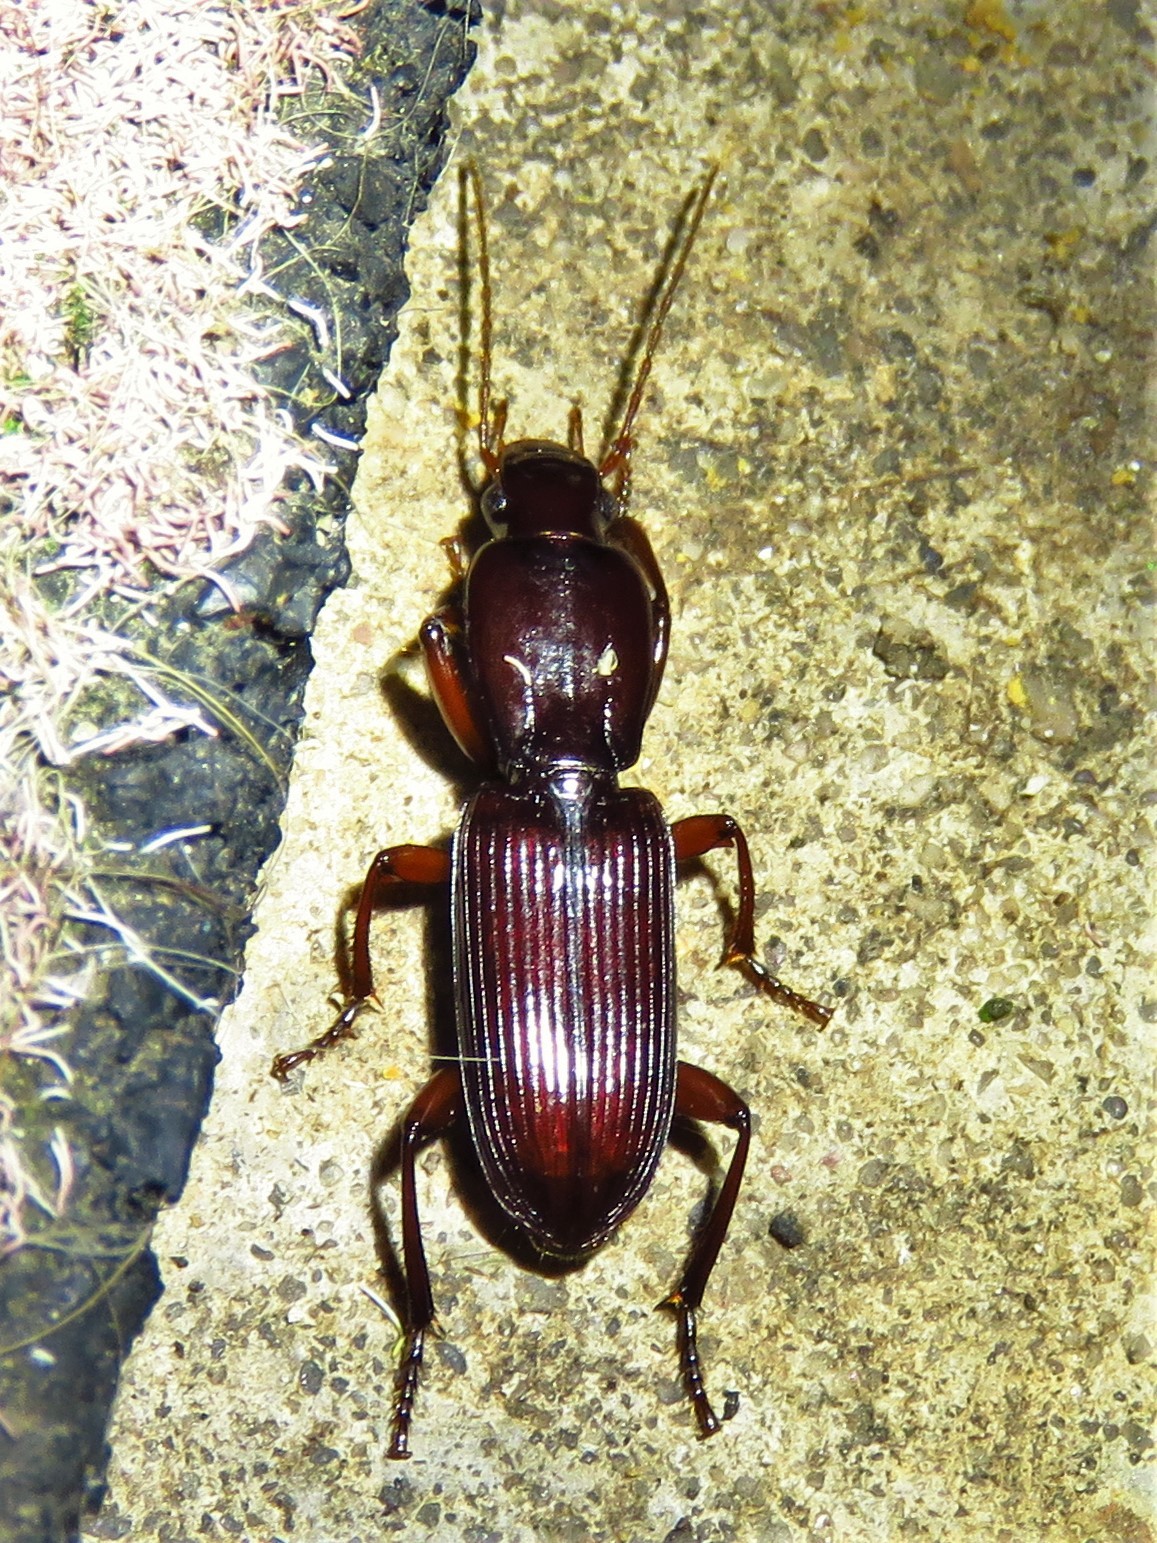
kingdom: Animalia
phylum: Arthropoda
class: Insecta
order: Coleoptera
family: Carabidae
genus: Stenomorphus
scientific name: Stenomorphus californicus
